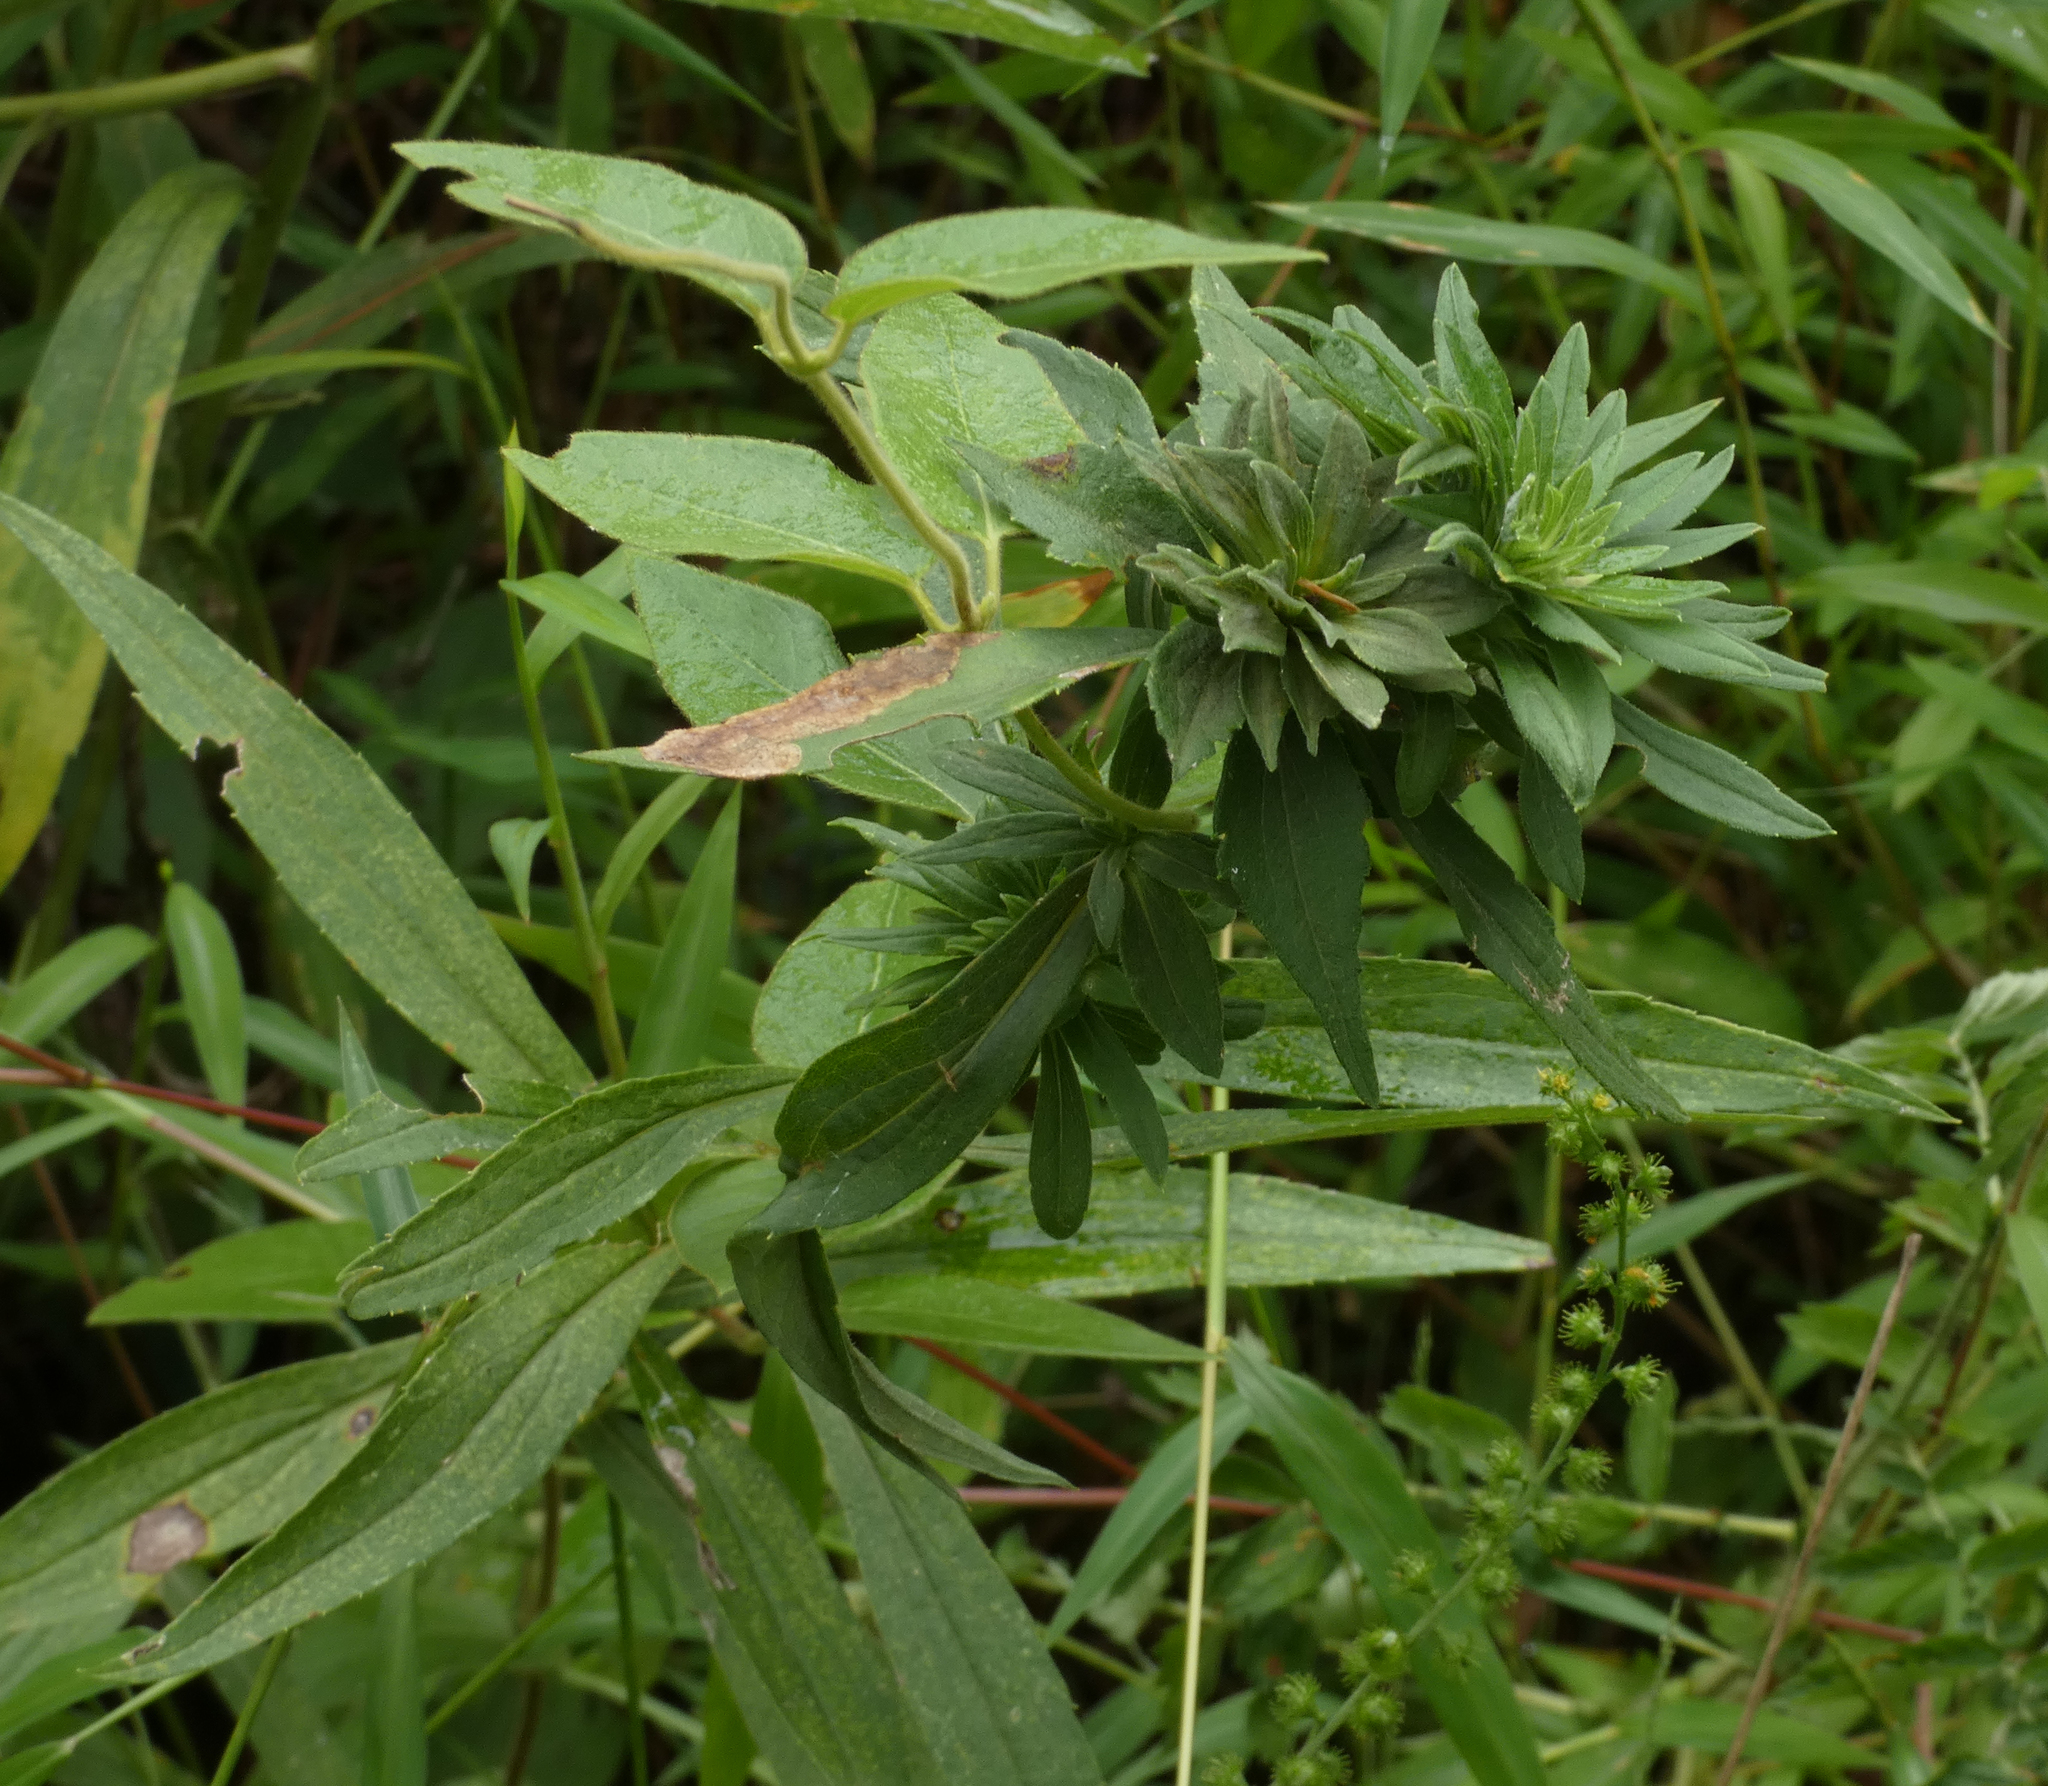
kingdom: Animalia
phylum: Arthropoda
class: Insecta
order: Diptera
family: Tephritidae
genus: Procecidochares
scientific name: Procecidochares atra
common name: Goldenrod brussels sprout gall fly
